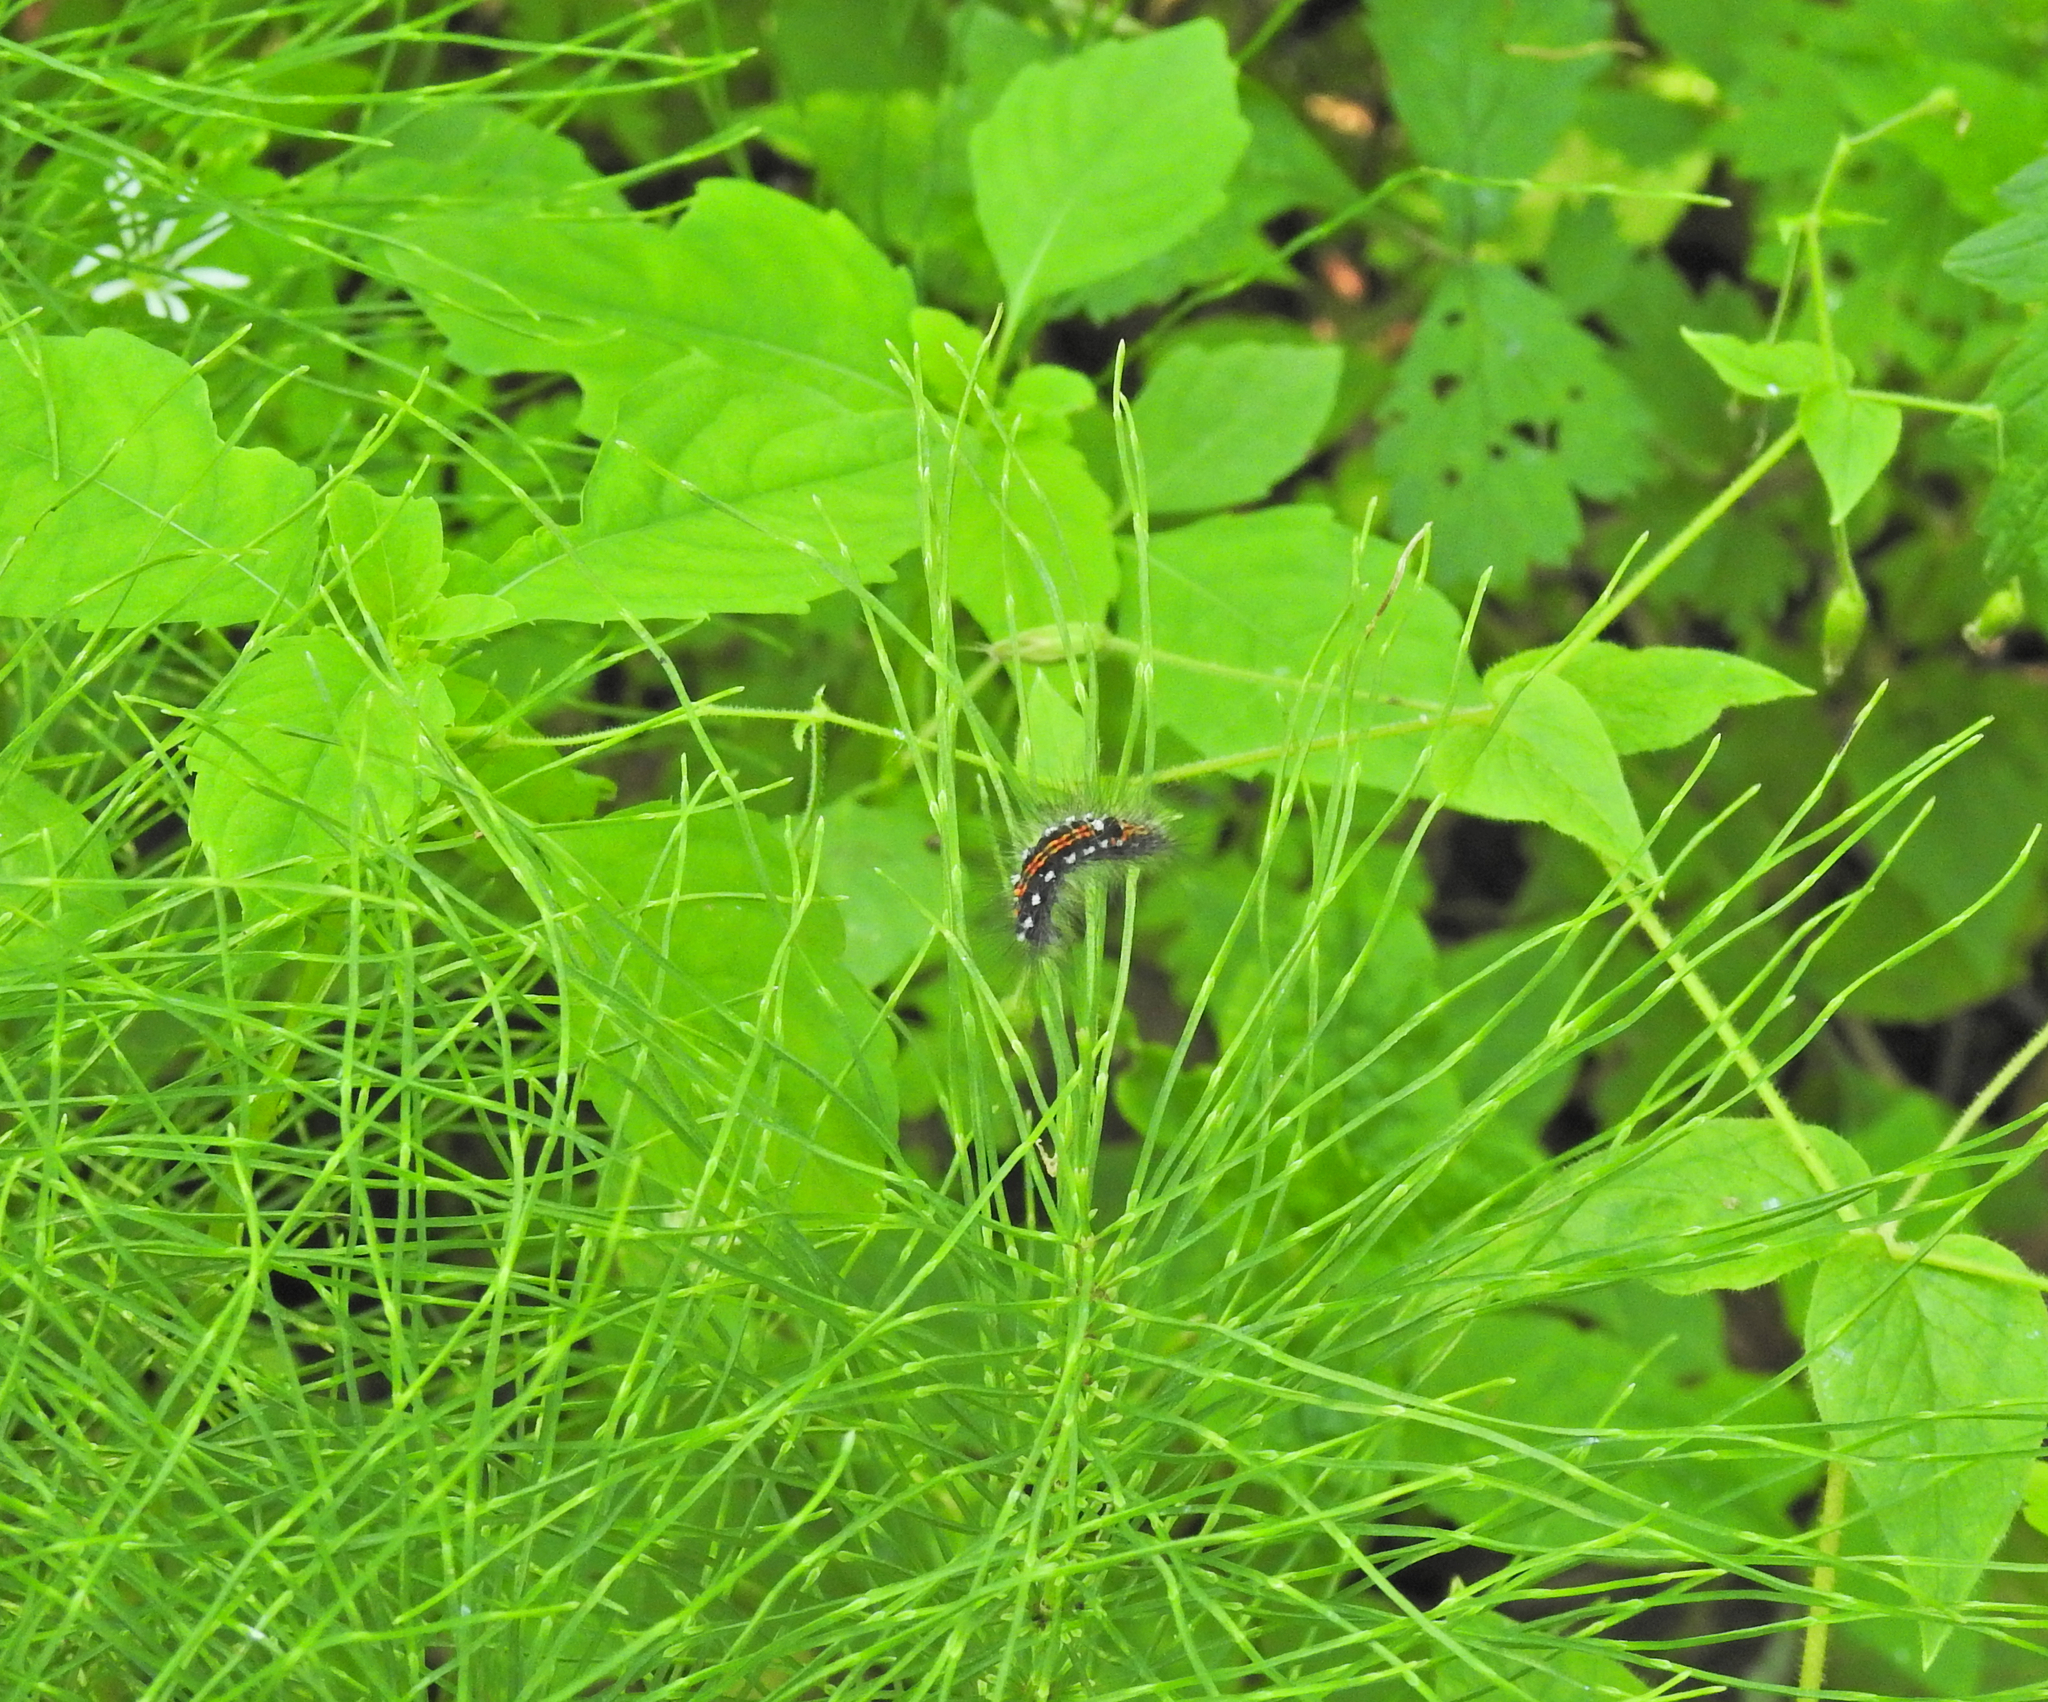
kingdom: Animalia
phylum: Arthropoda
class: Insecta
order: Lepidoptera
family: Erebidae
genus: Sphrageidus
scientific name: Sphrageidus similis
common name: Yellow-tail
